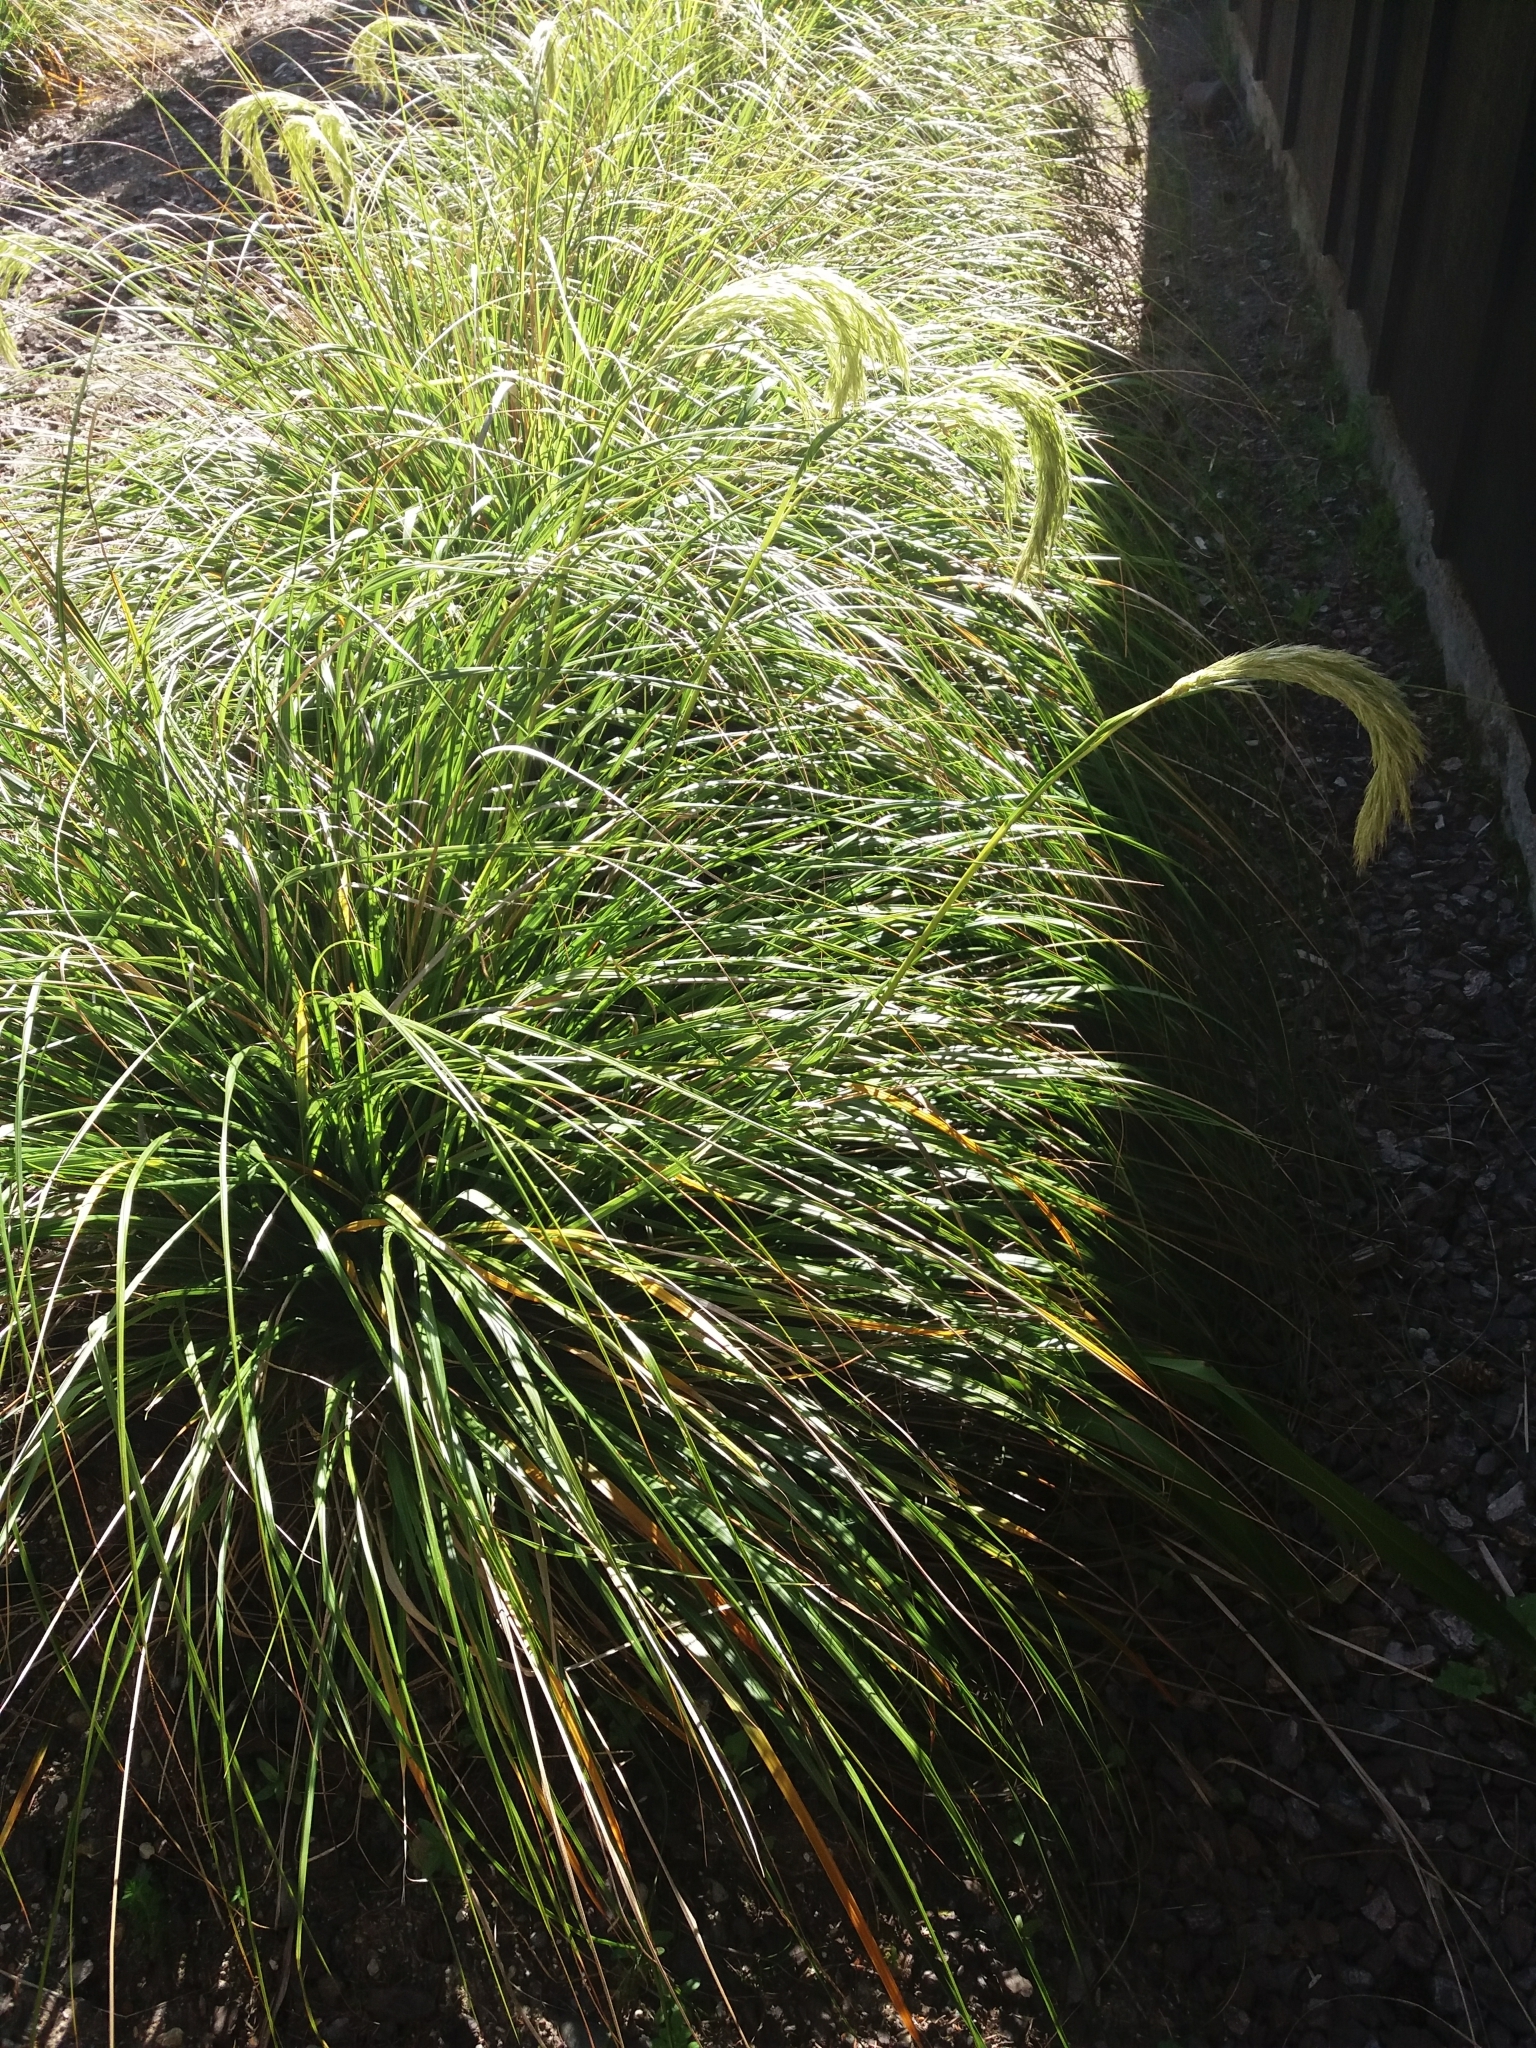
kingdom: Plantae
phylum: Tracheophyta
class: Liliopsida
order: Poales
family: Poaceae
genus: Chionochloa
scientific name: Chionochloa flavicans
